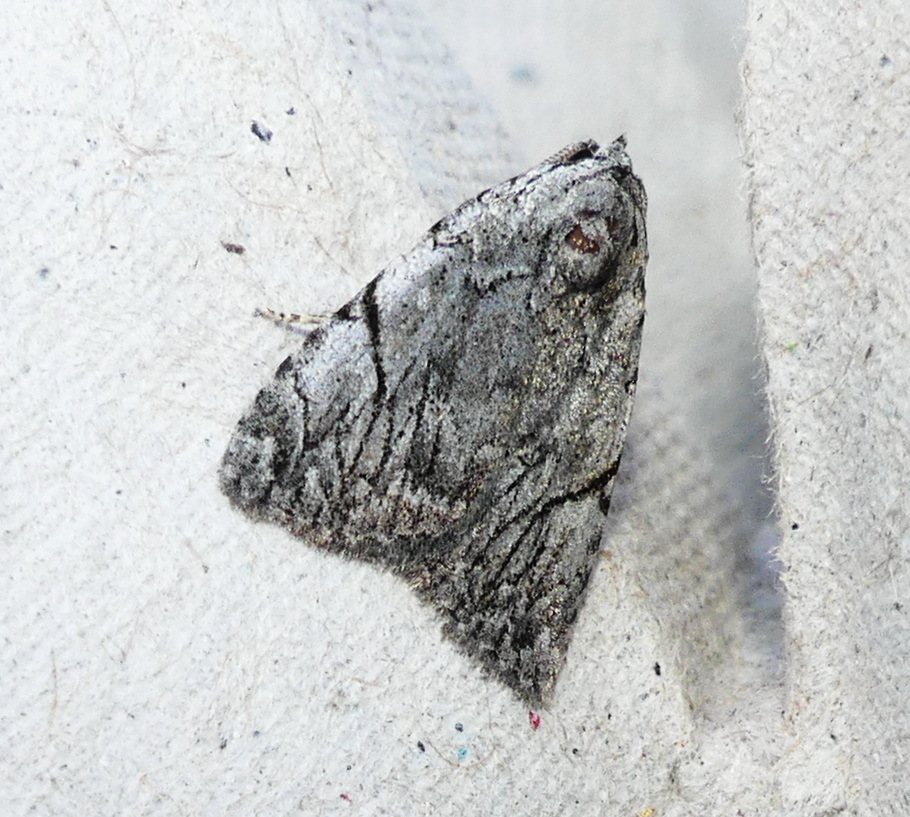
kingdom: Animalia
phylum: Arthropoda
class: Insecta
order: Lepidoptera
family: Noctuidae
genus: Balsa
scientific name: Balsa malana
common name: Many-dotted appleworm moth
